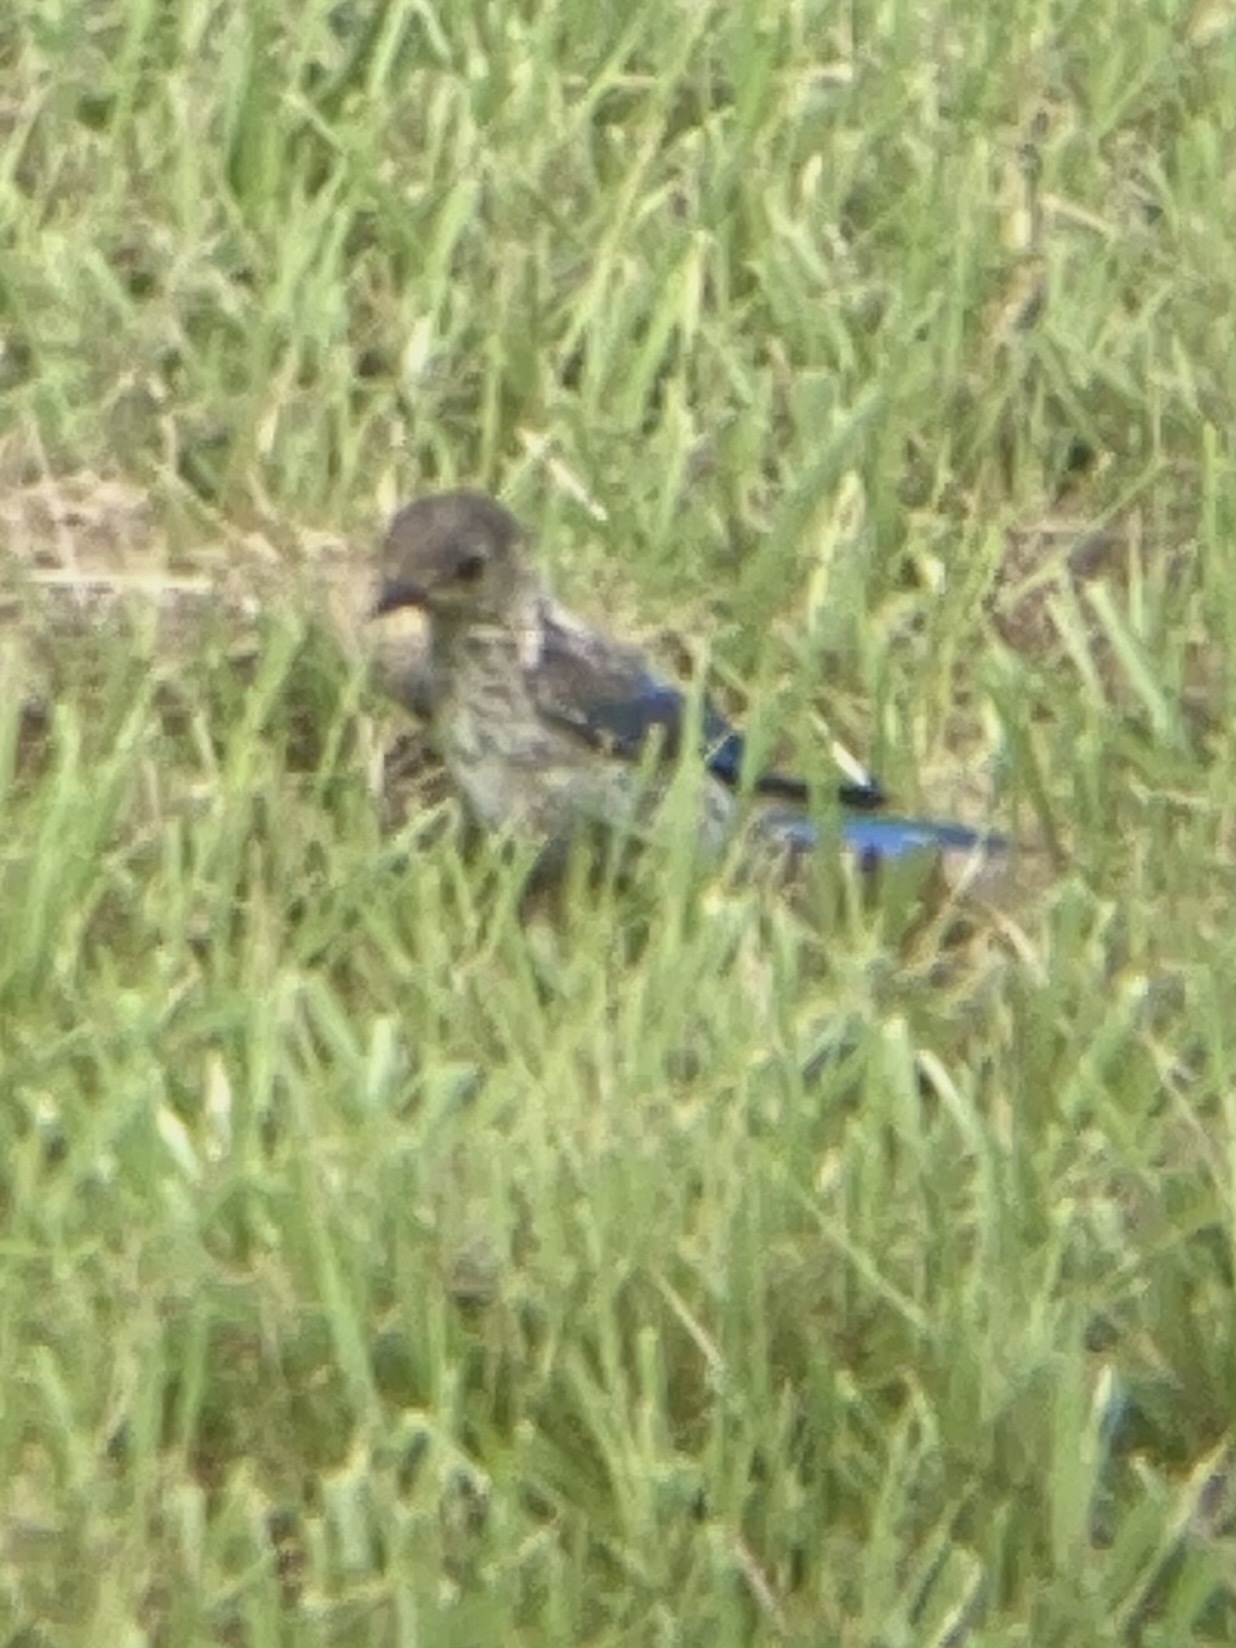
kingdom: Animalia
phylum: Chordata
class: Aves
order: Passeriformes
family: Turdidae
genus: Sialia
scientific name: Sialia sialis
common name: Eastern bluebird
